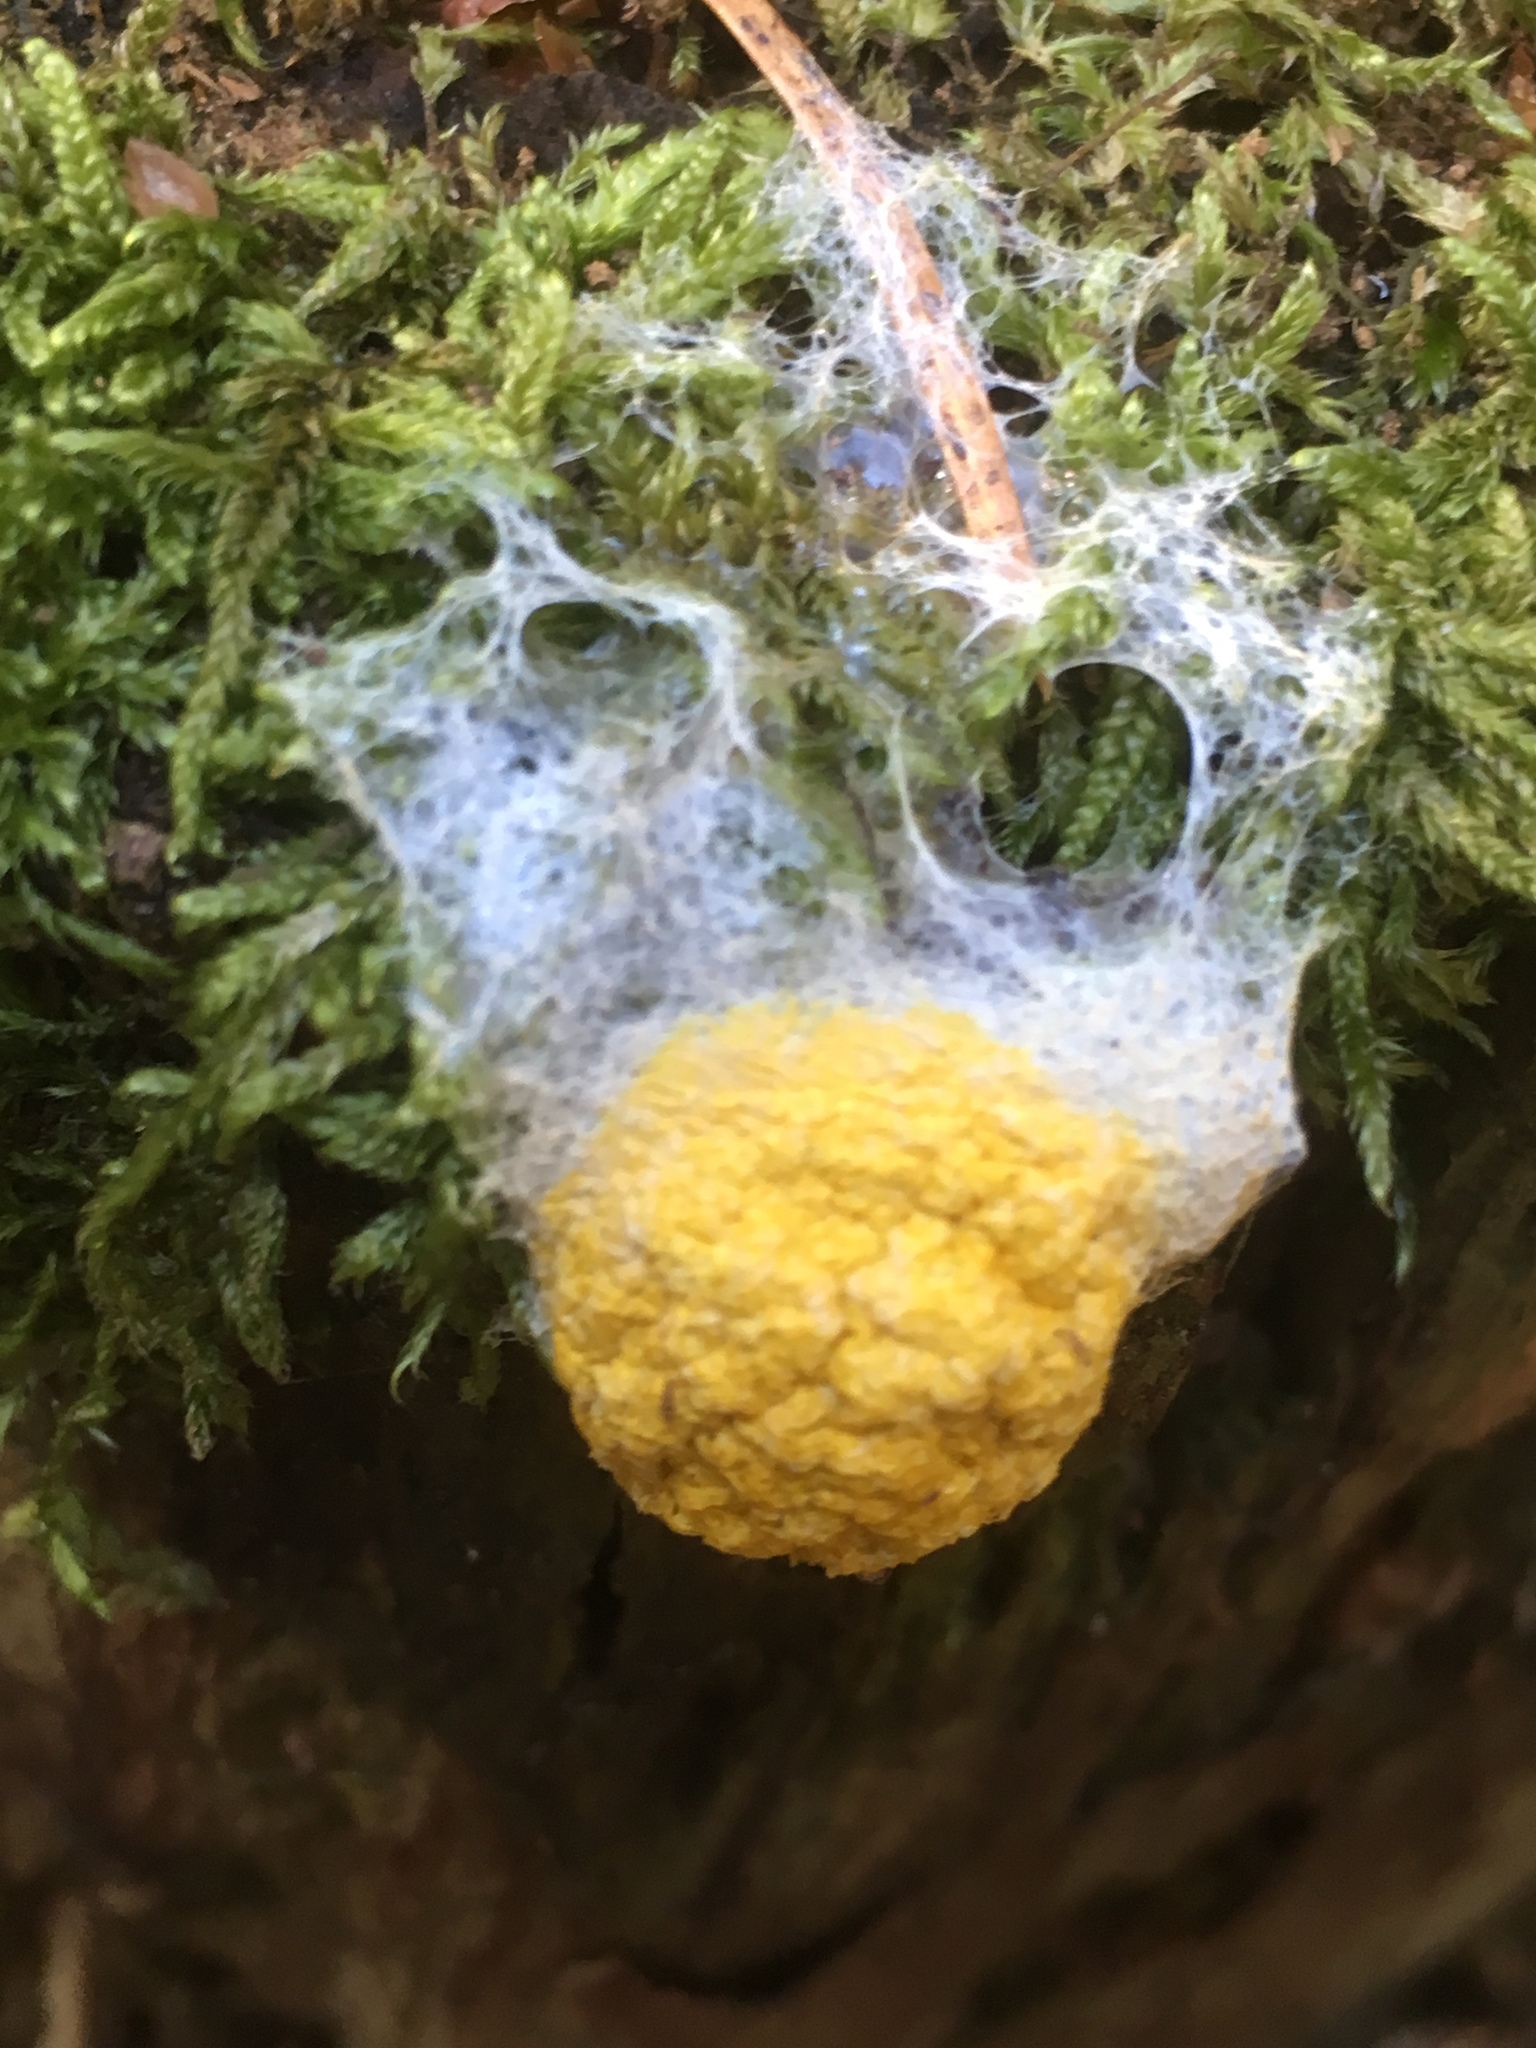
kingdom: Protozoa
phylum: Mycetozoa
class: Myxomycetes
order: Physarales
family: Physaraceae
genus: Fuligo
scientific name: Fuligo septica
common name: Dog vomit slime mold
